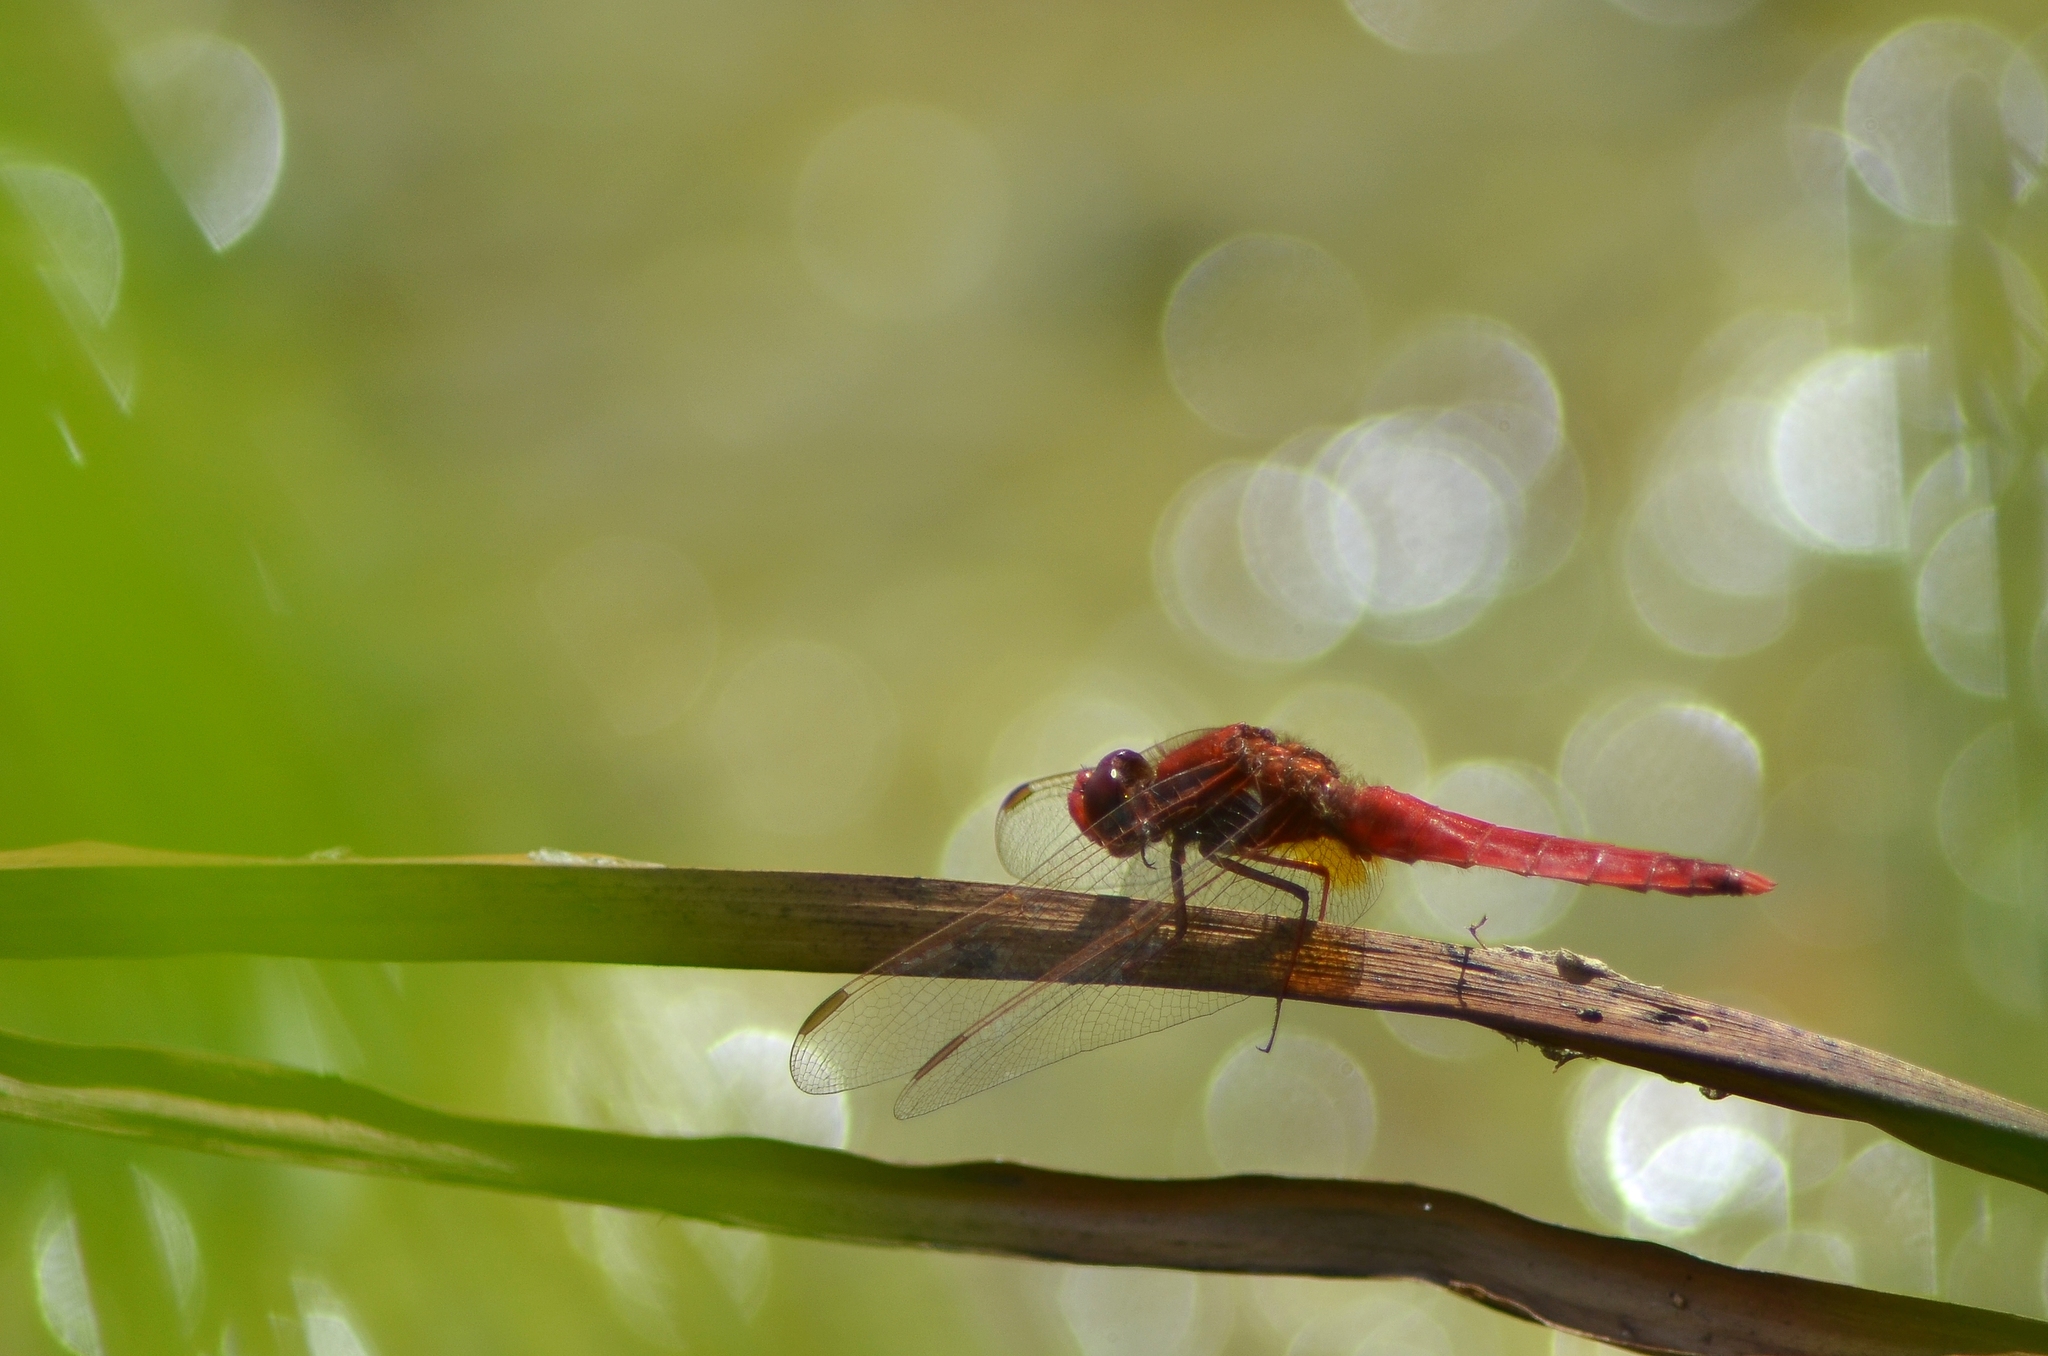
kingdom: Animalia
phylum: Arthropoda
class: Insecta
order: Odonata
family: Libellulidae
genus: Crocothemis
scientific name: Crocothemis erythraea
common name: Scarlet dragonfly
